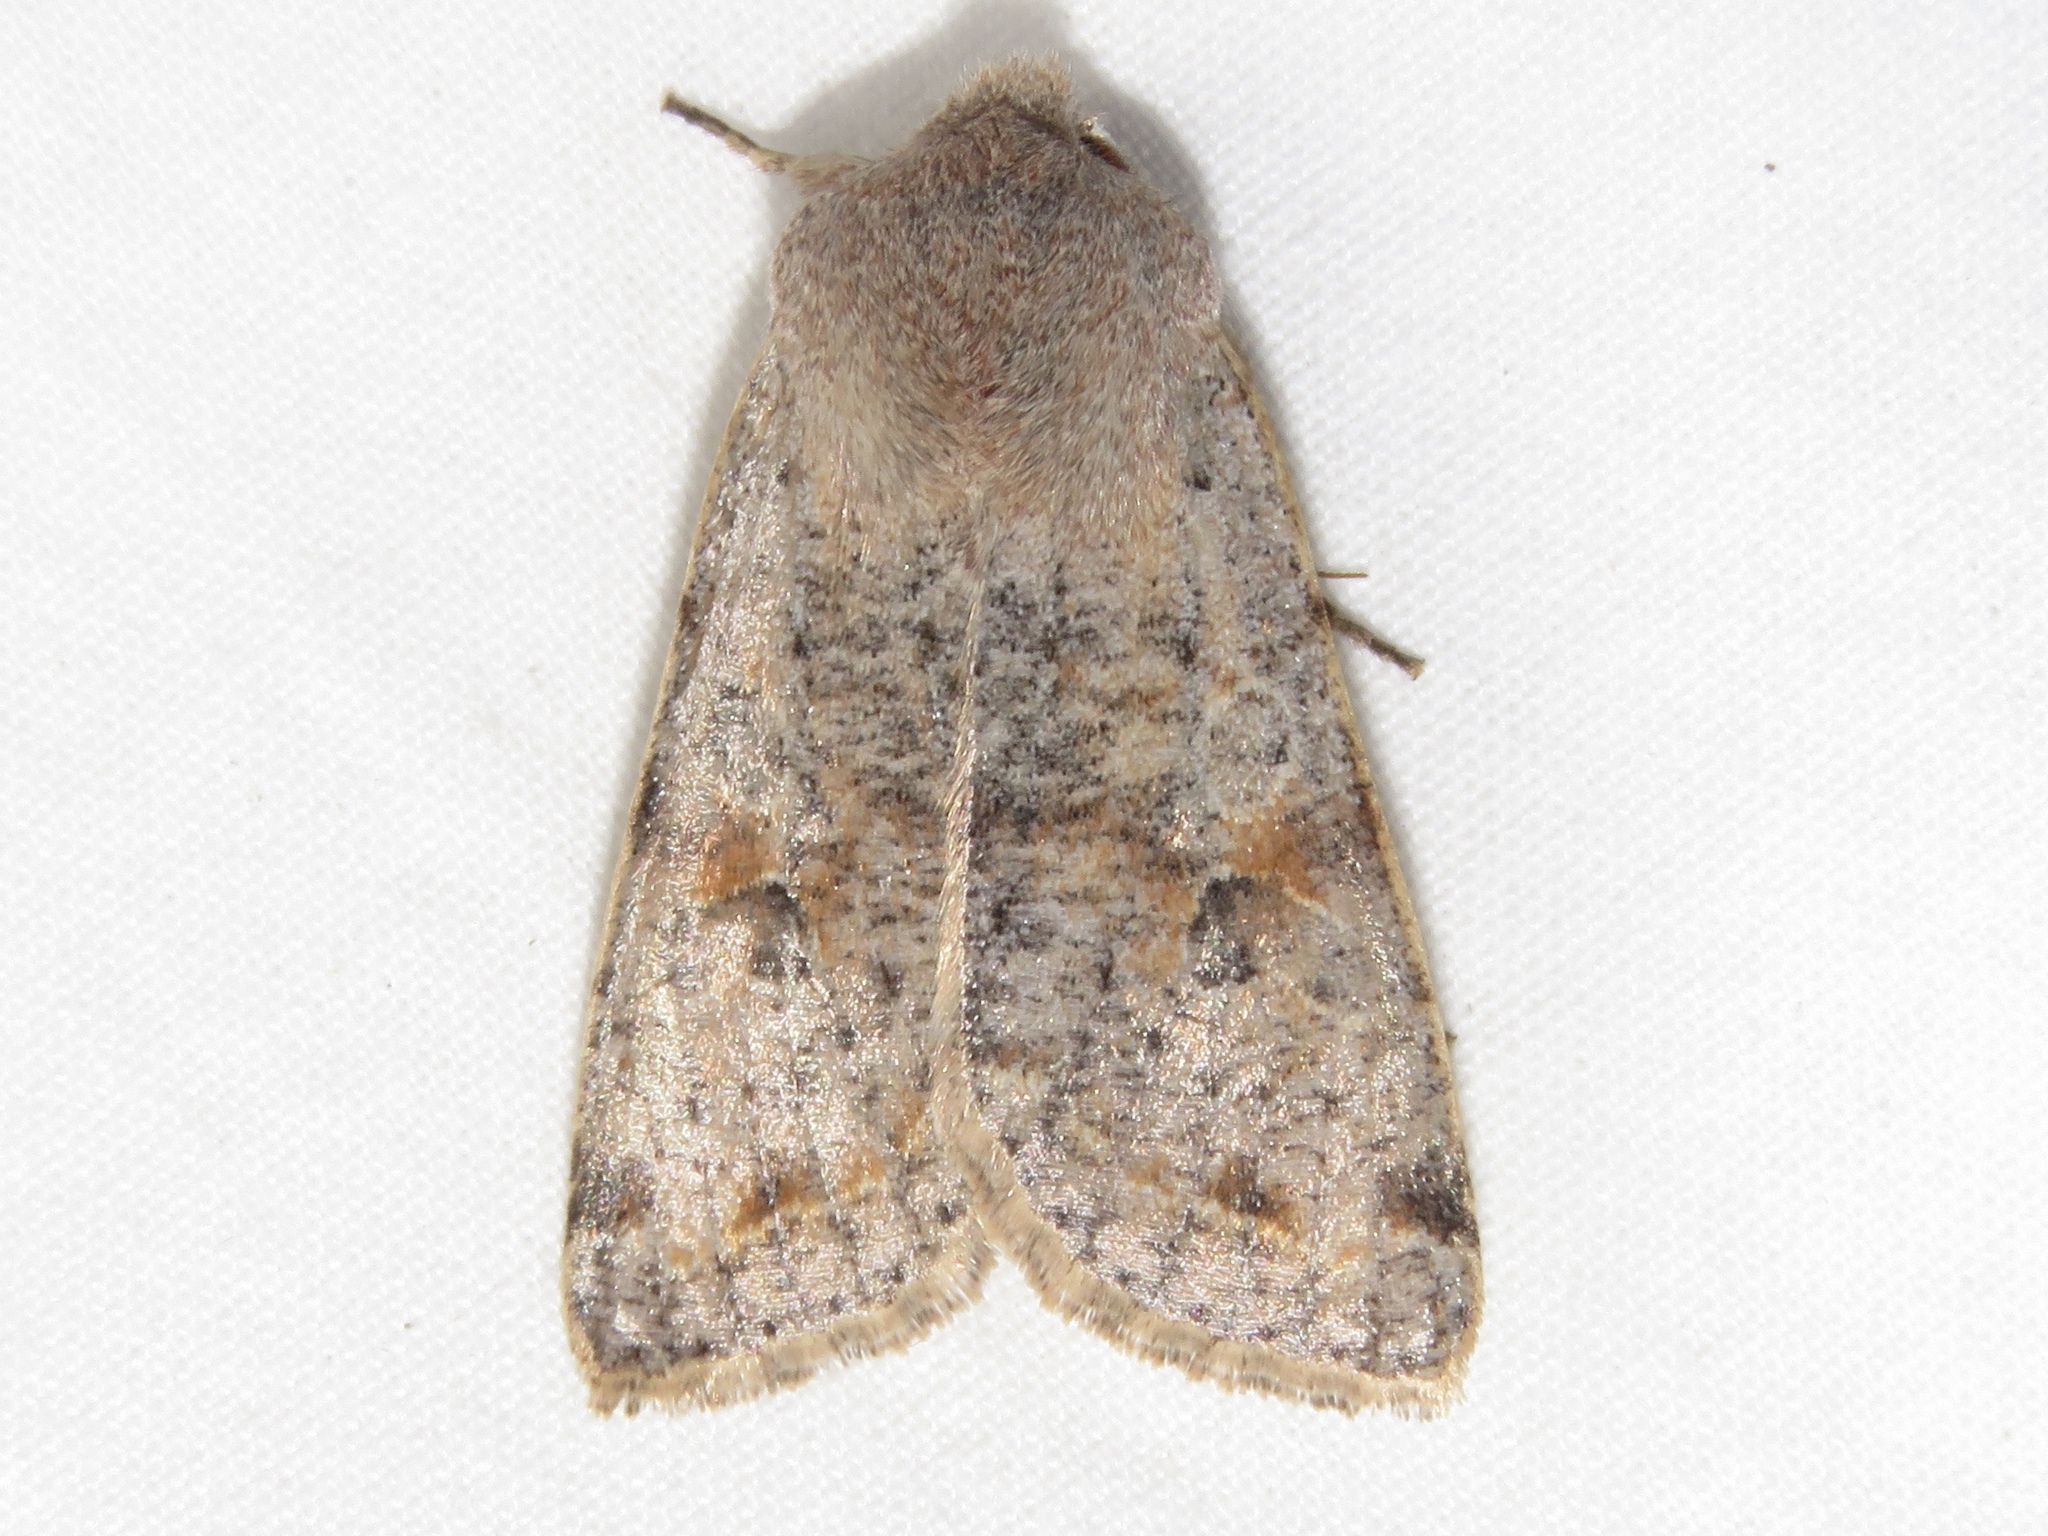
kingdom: Animalia
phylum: Arthropoda
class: Insecta
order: Lepidoptera
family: Noctuidae
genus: Orthosia
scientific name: Orthosia hibisci
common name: Green fruitworm
